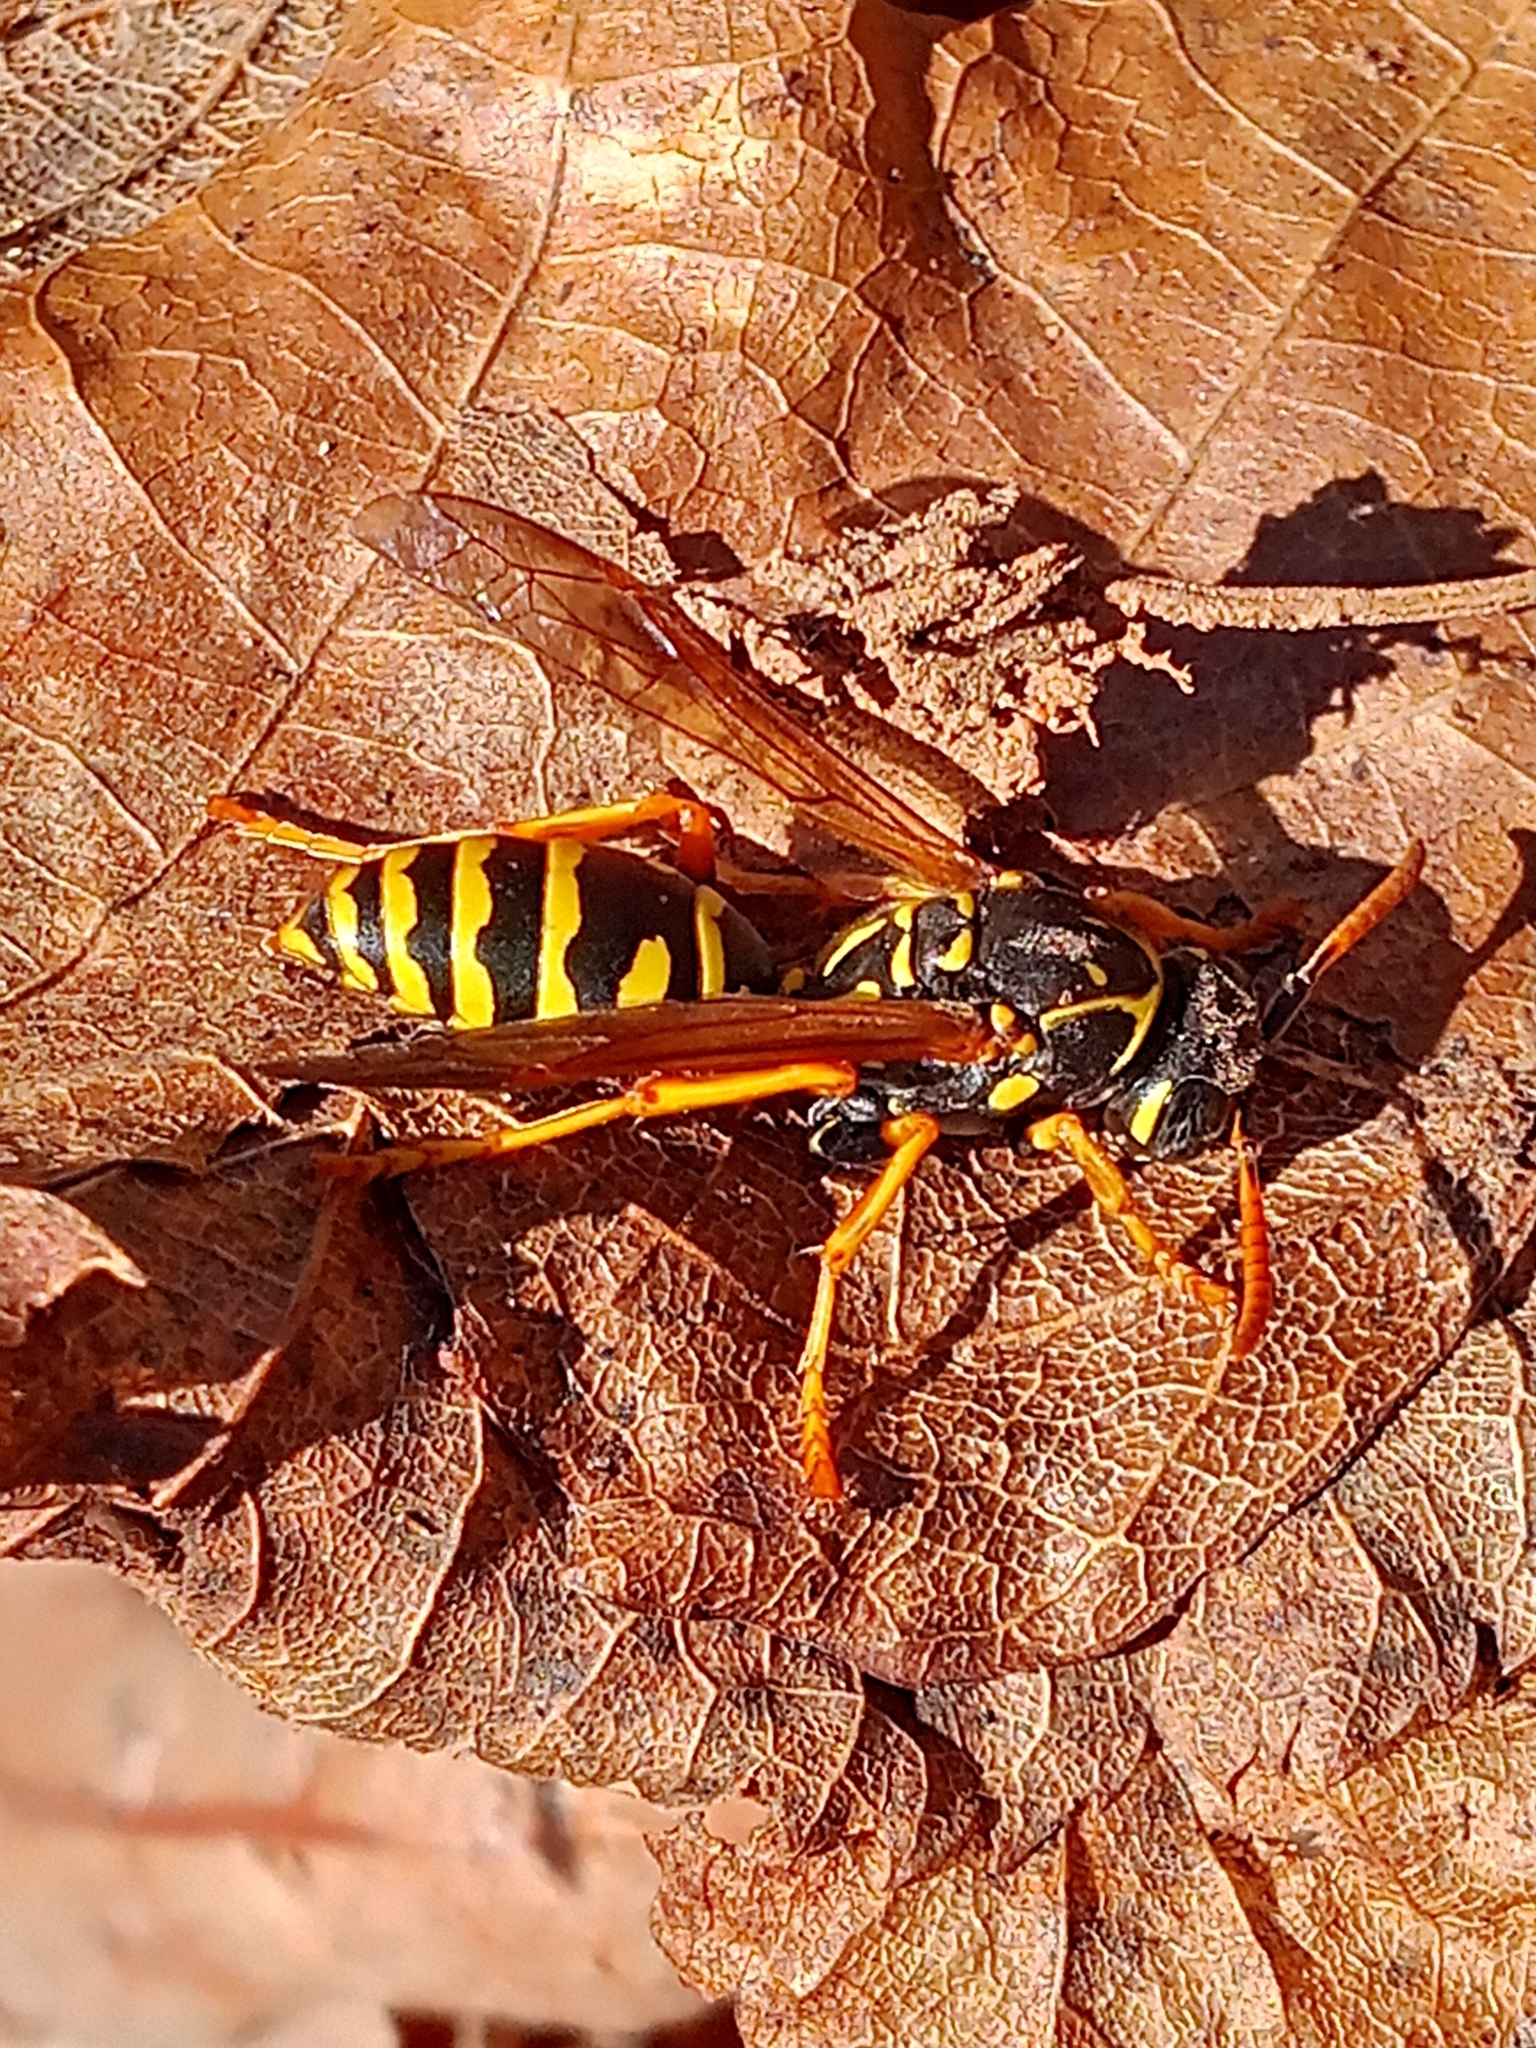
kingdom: Animalia
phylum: Arthropoda
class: Insecta
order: Hymenoptera
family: Eumenidae
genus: Polistes
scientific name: Polistes dominula
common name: Paper wasp
